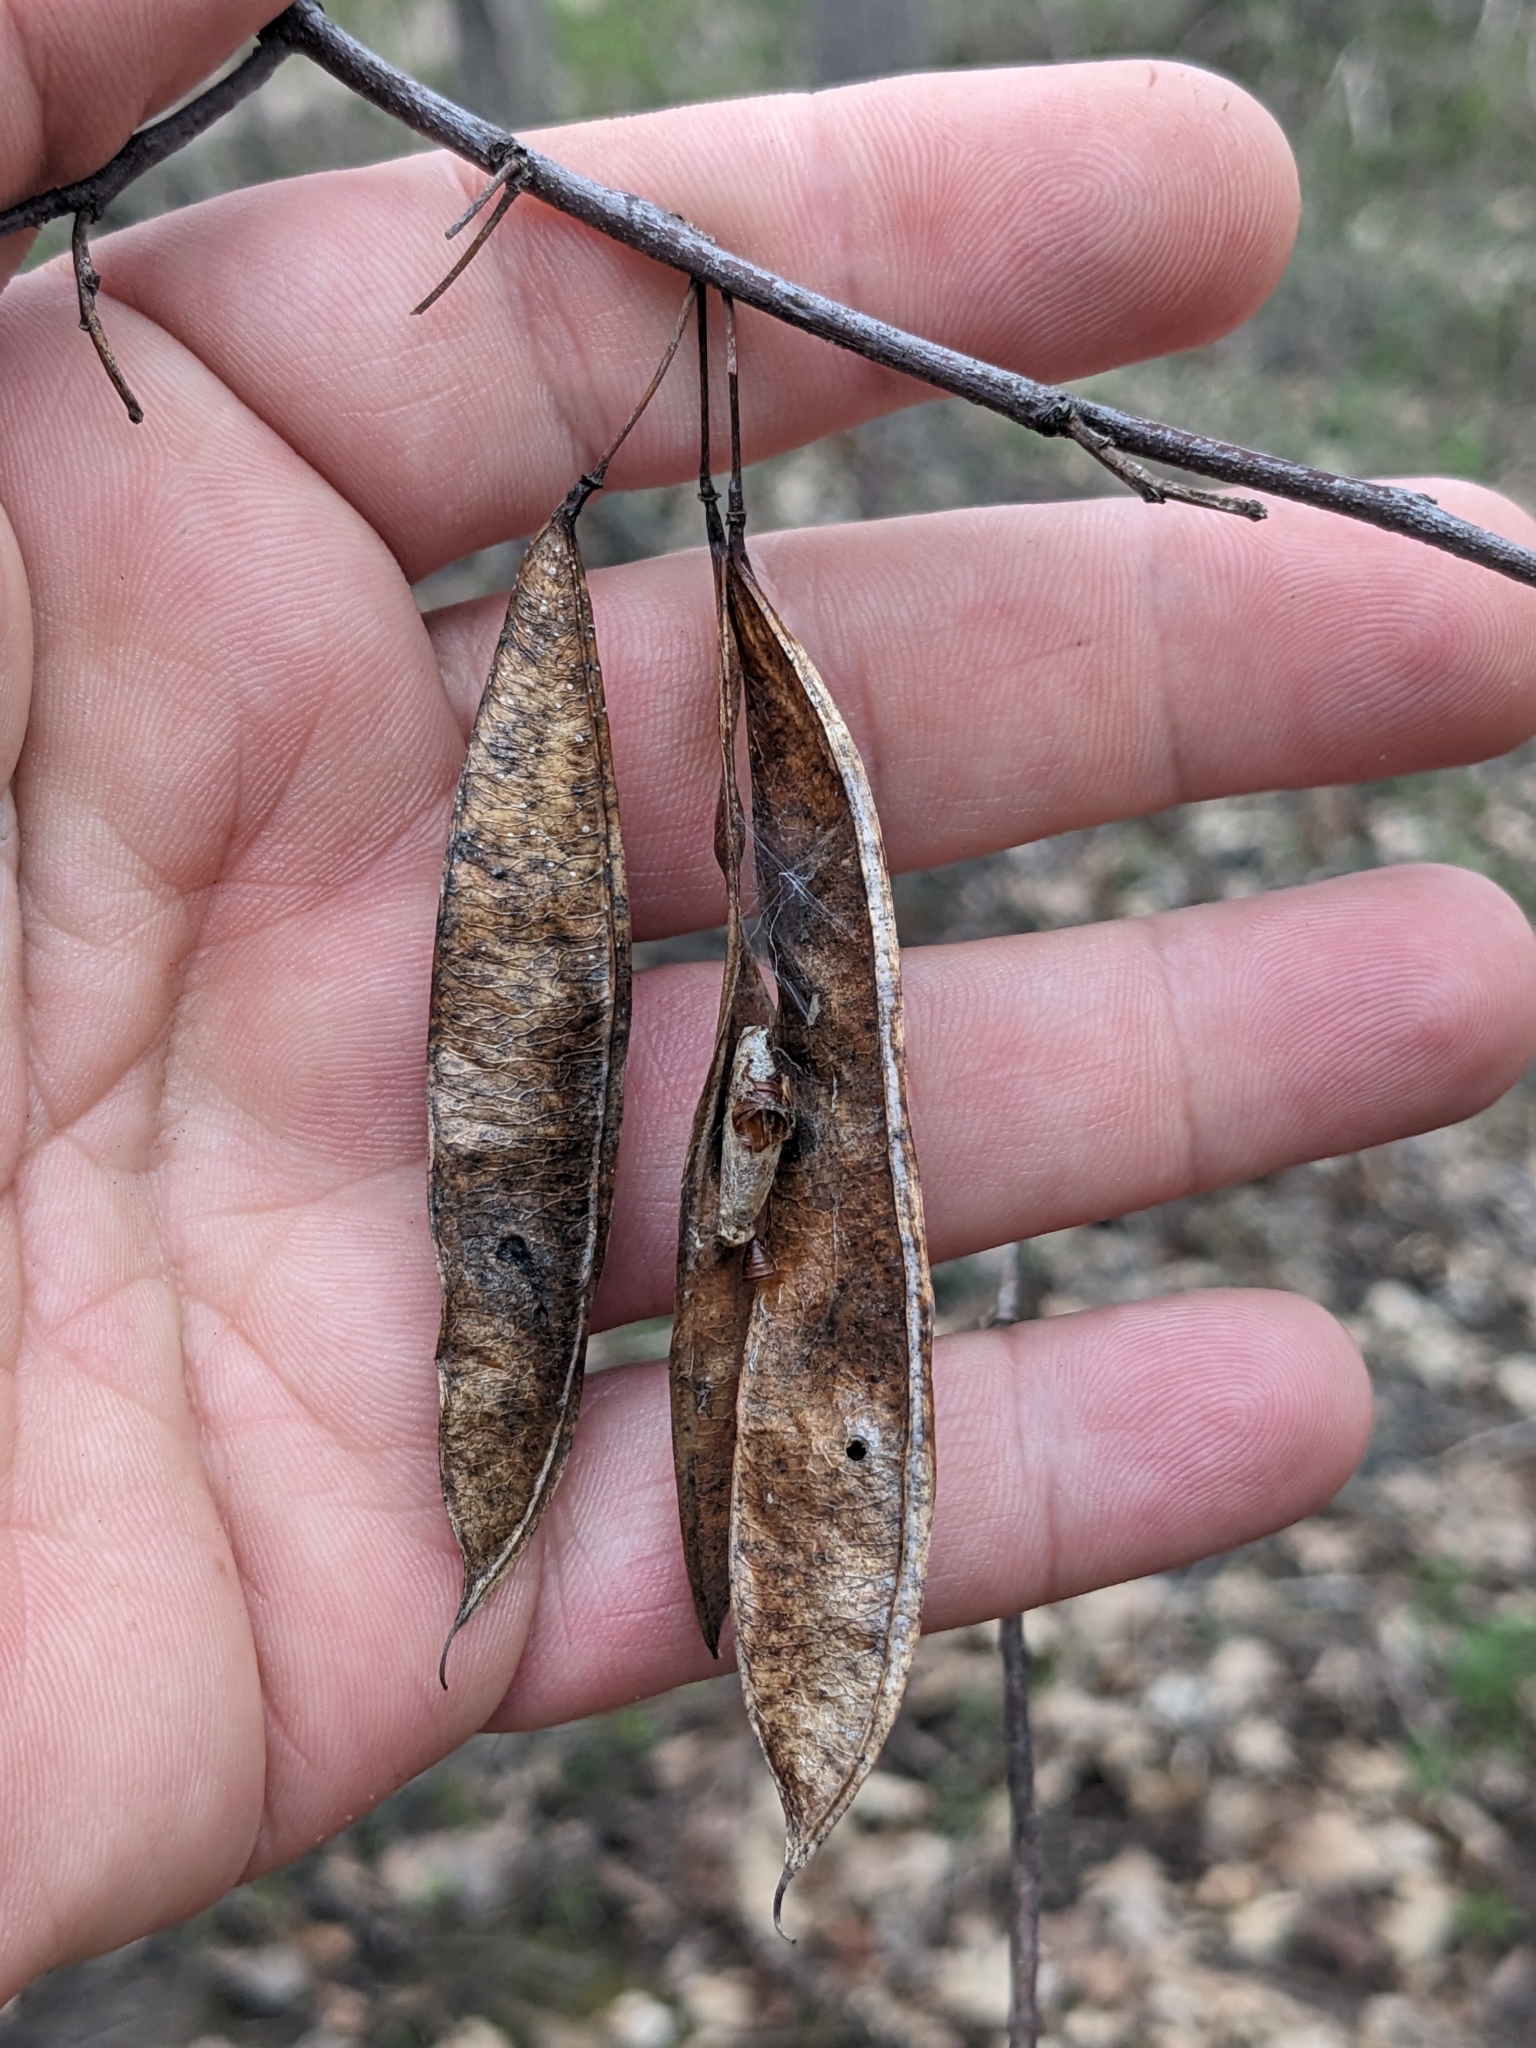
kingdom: Plantae
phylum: Tracheophyta
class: Magnoliopsida
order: Fabales
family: Fabaceae
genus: Cercis
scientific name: Cercis canadensis
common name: Eastern redbud
